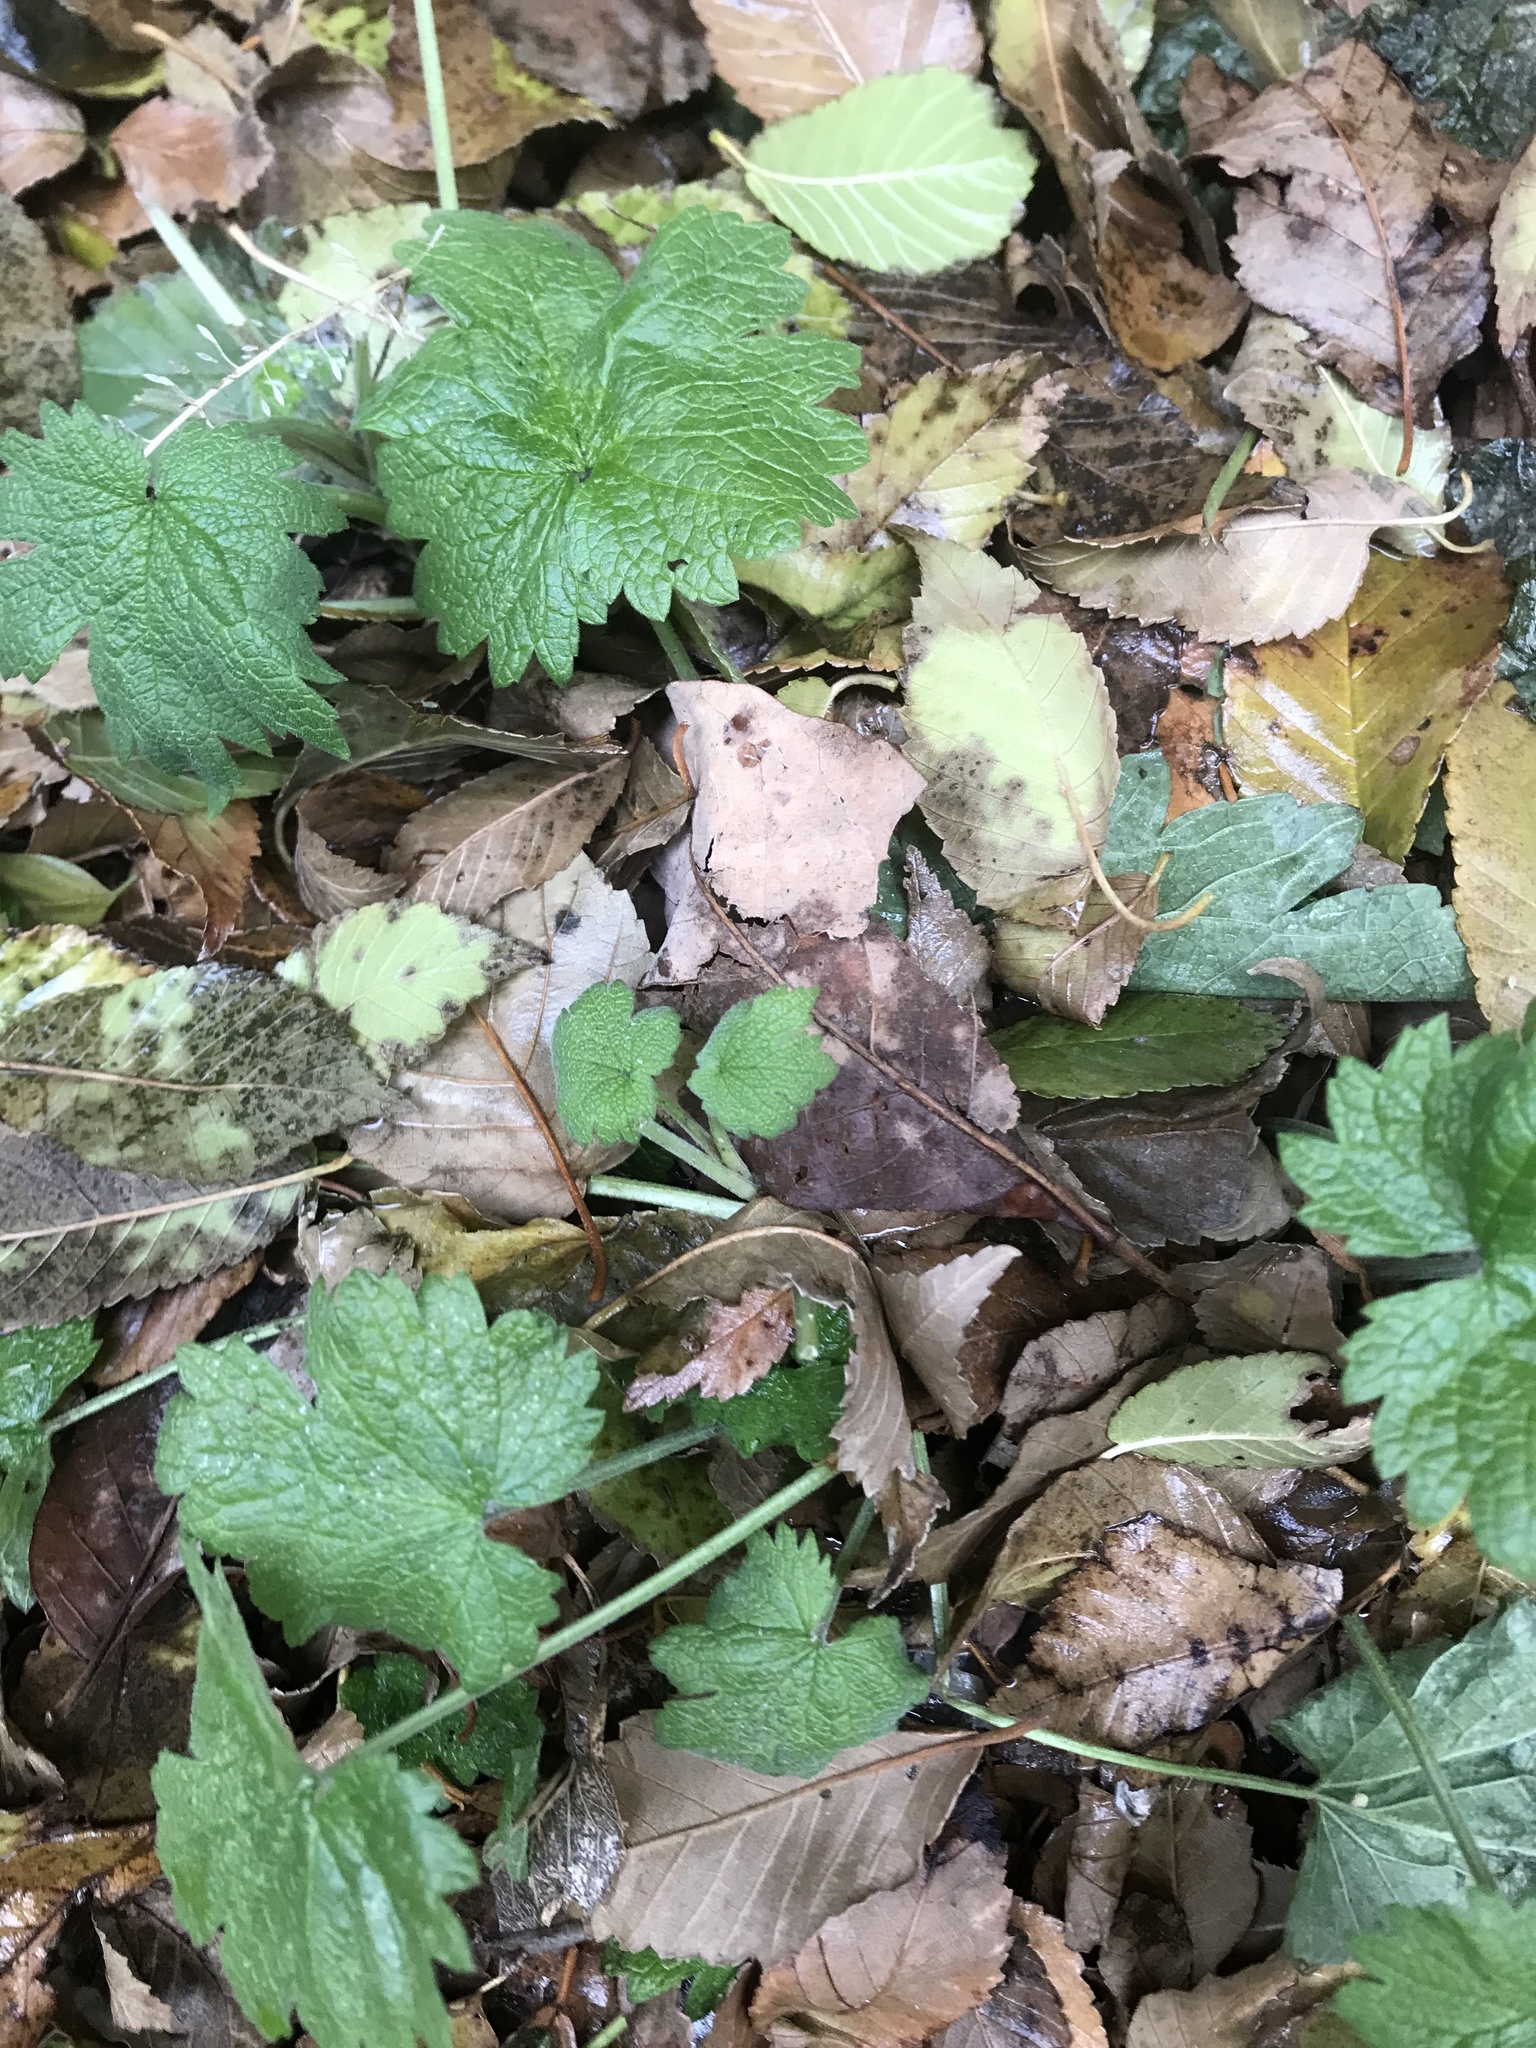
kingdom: Plantae
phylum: Tracheophyta
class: Magnoliopsida
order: Lamiales
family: Lamiaceae
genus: Leonurus
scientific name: Leonurus cardiaca
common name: Motherwort
